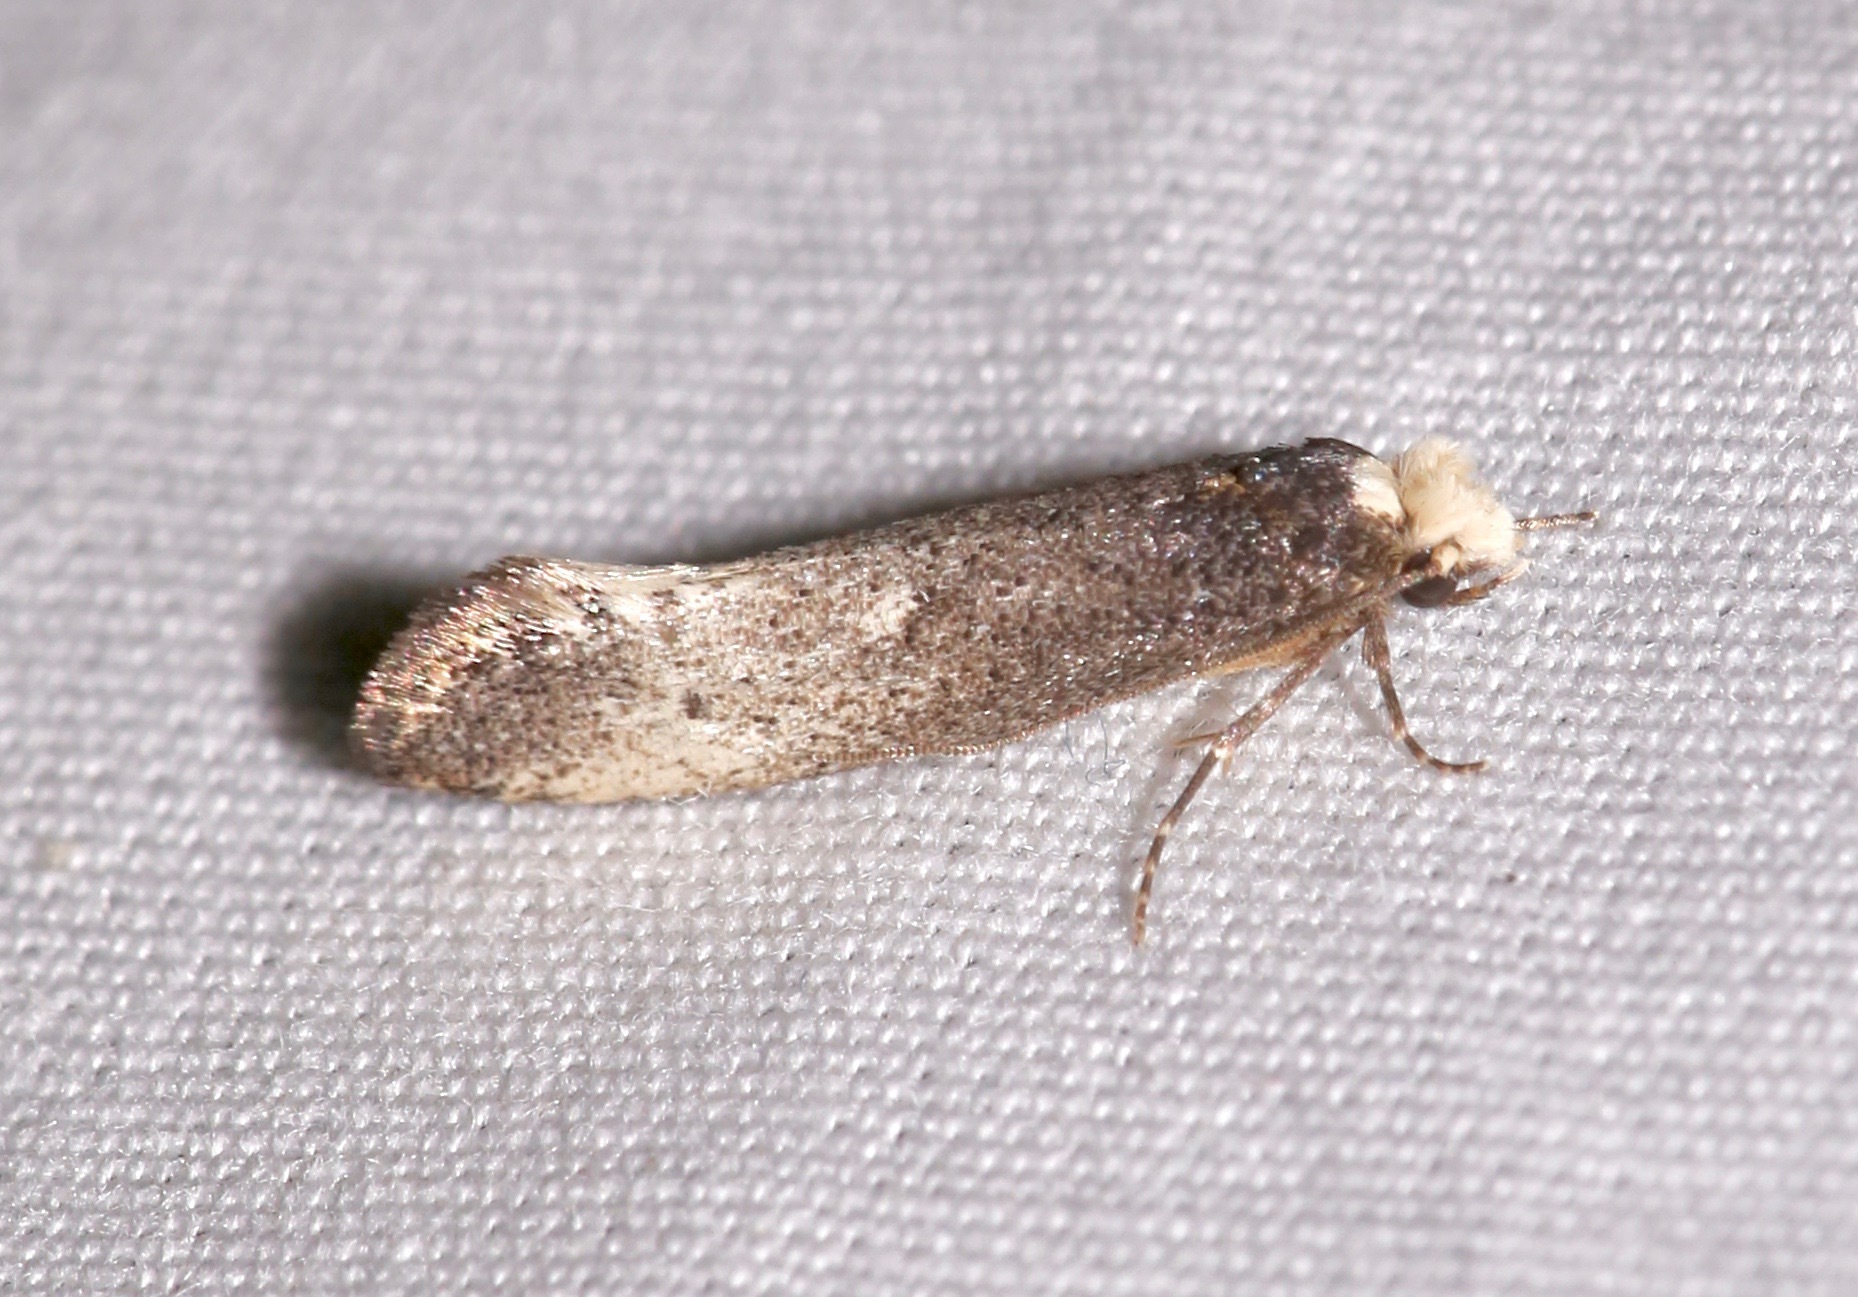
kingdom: Animalia
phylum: Arthropoda
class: Insecta
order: Lepidoptera
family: Tineidae
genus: Tinea
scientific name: Tinea occidentella
